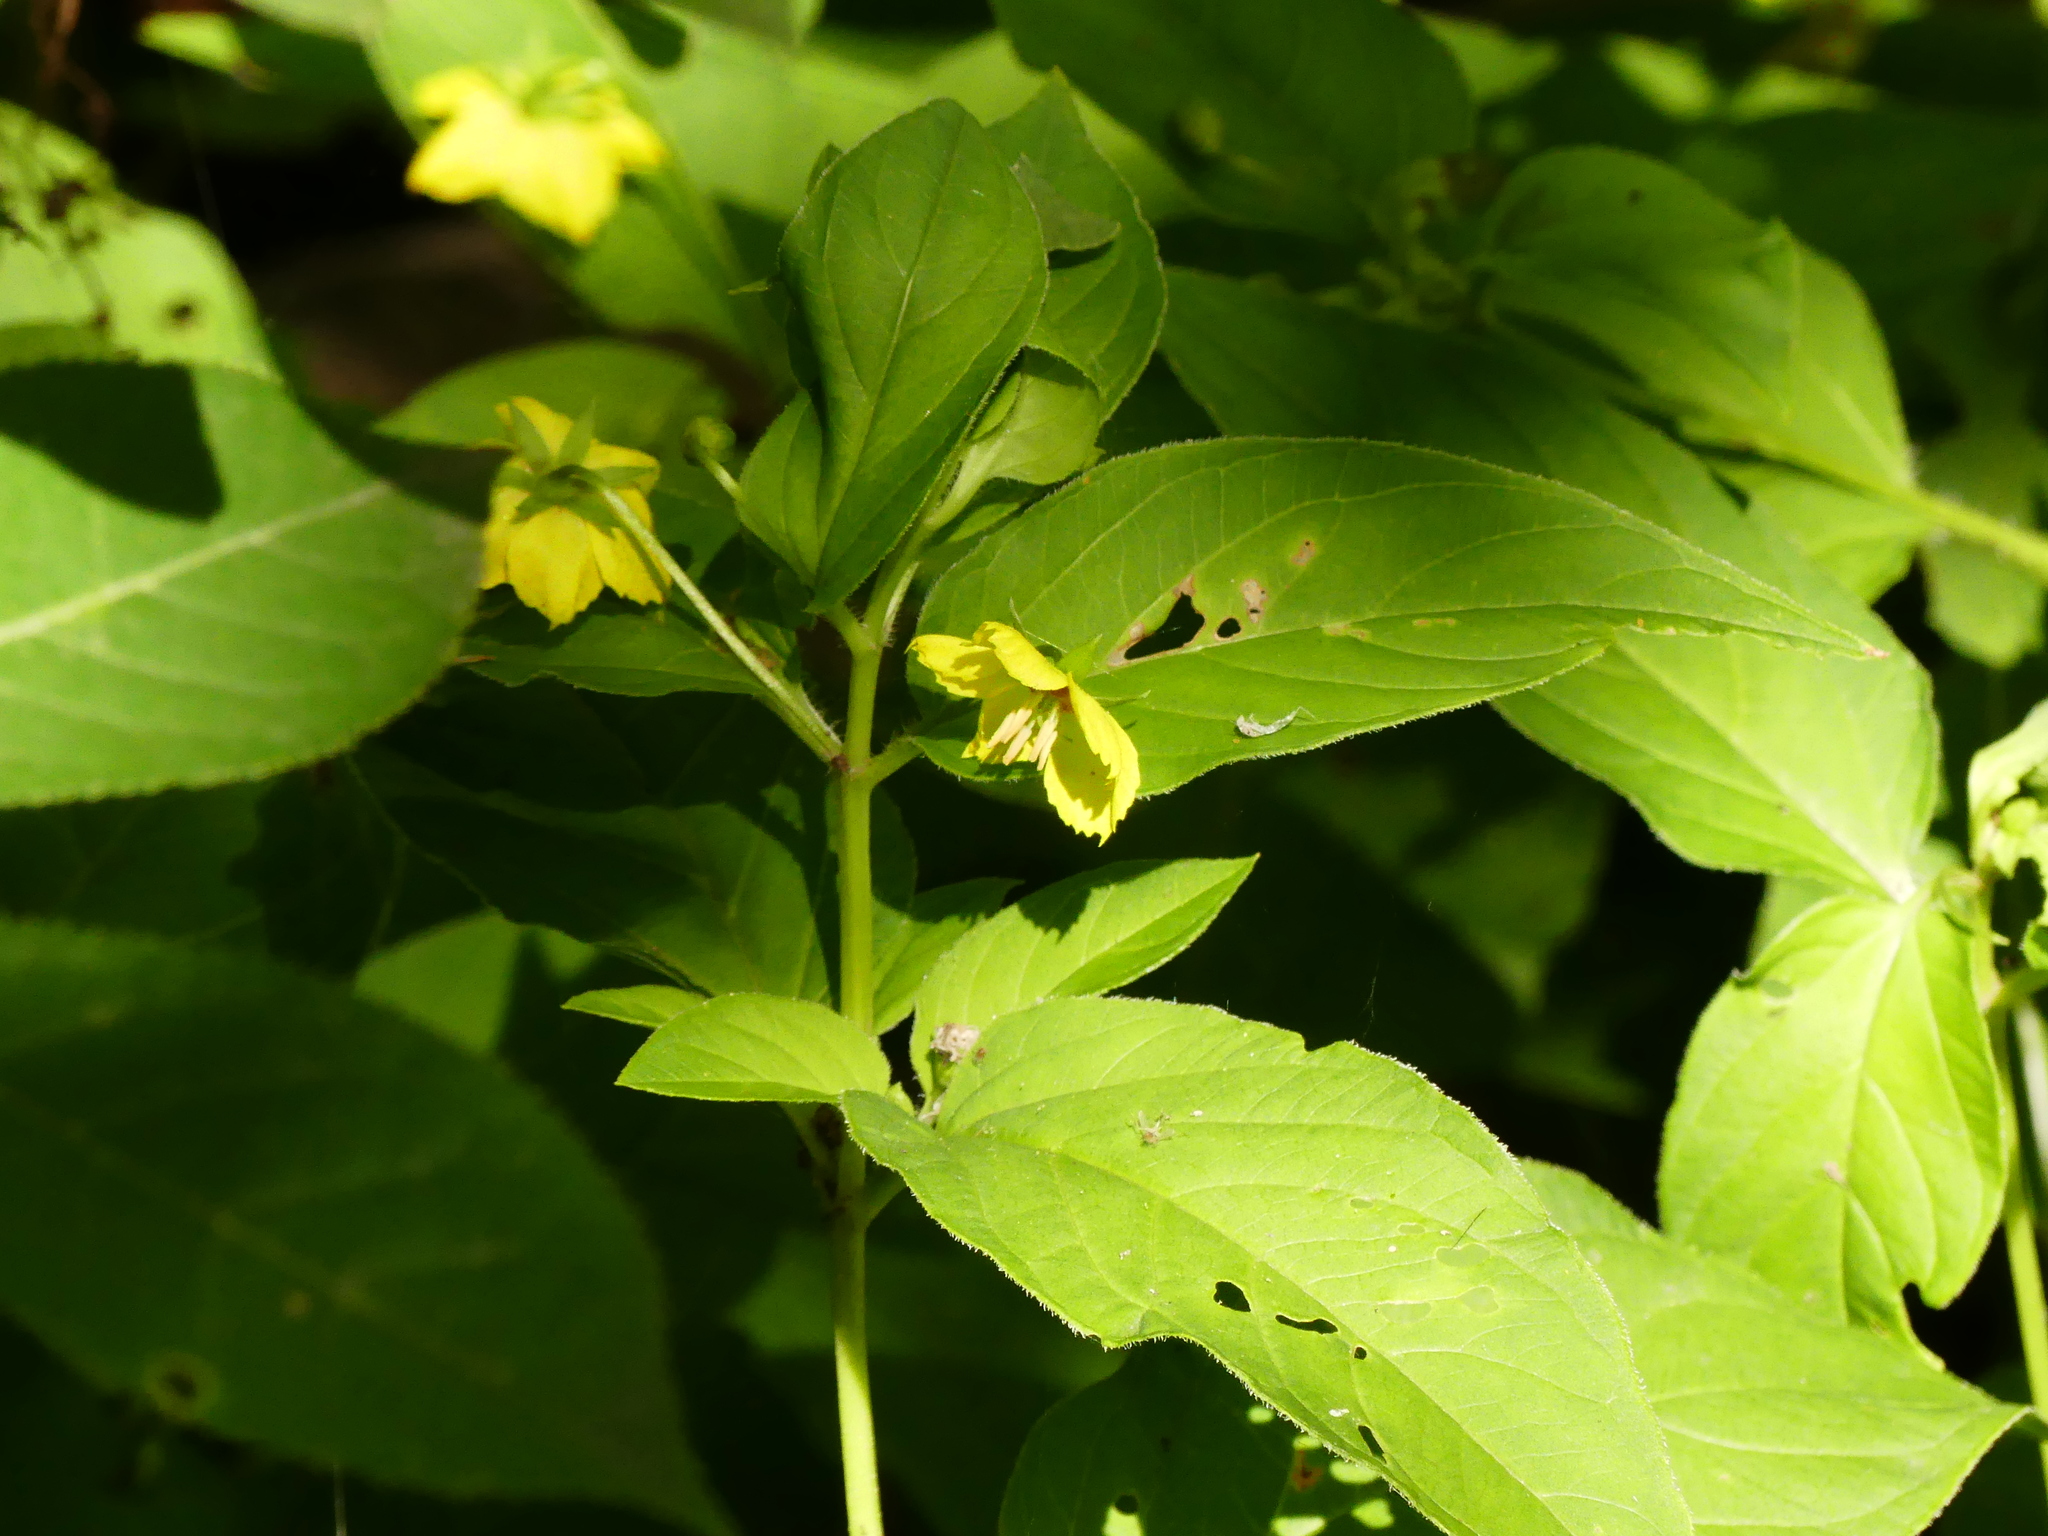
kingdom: Plantae
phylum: Tracheophyta
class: Magnoliopsida
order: Ericales
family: Primulaceae
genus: Lysimachia
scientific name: Lysimachia ciliata
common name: Fringed loosestrife
